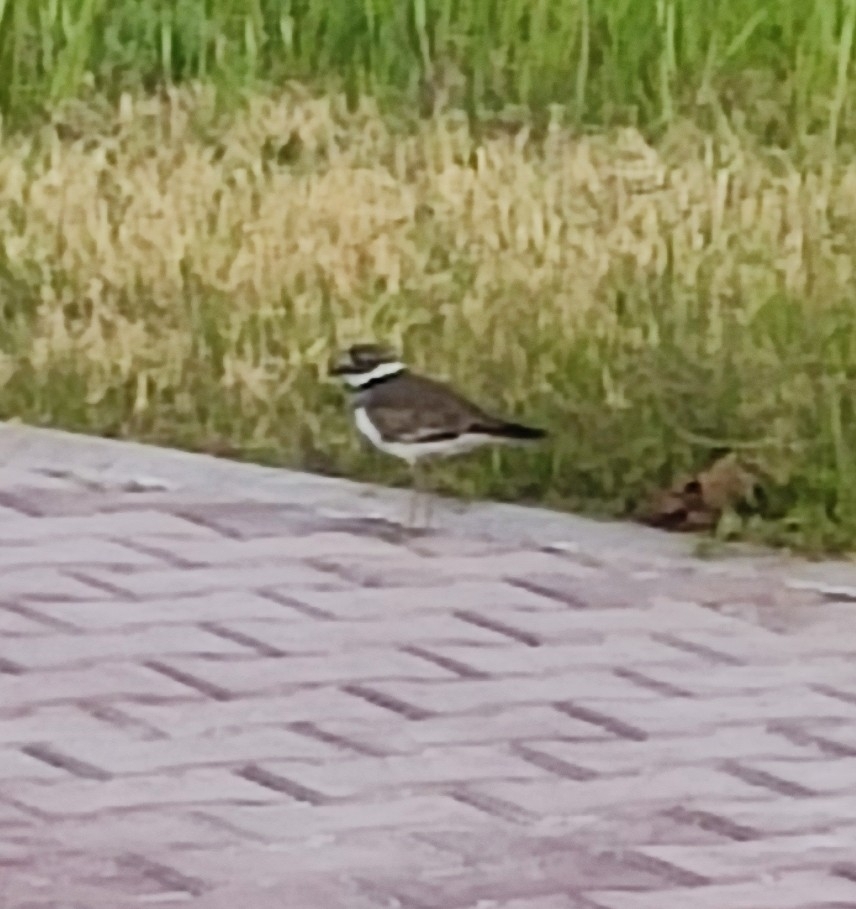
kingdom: Animalia
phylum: Chordata
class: Aves
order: Charadriiformes
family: Charadriidae
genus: Charadrius
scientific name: Charadrius vociferus
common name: Killdeer
